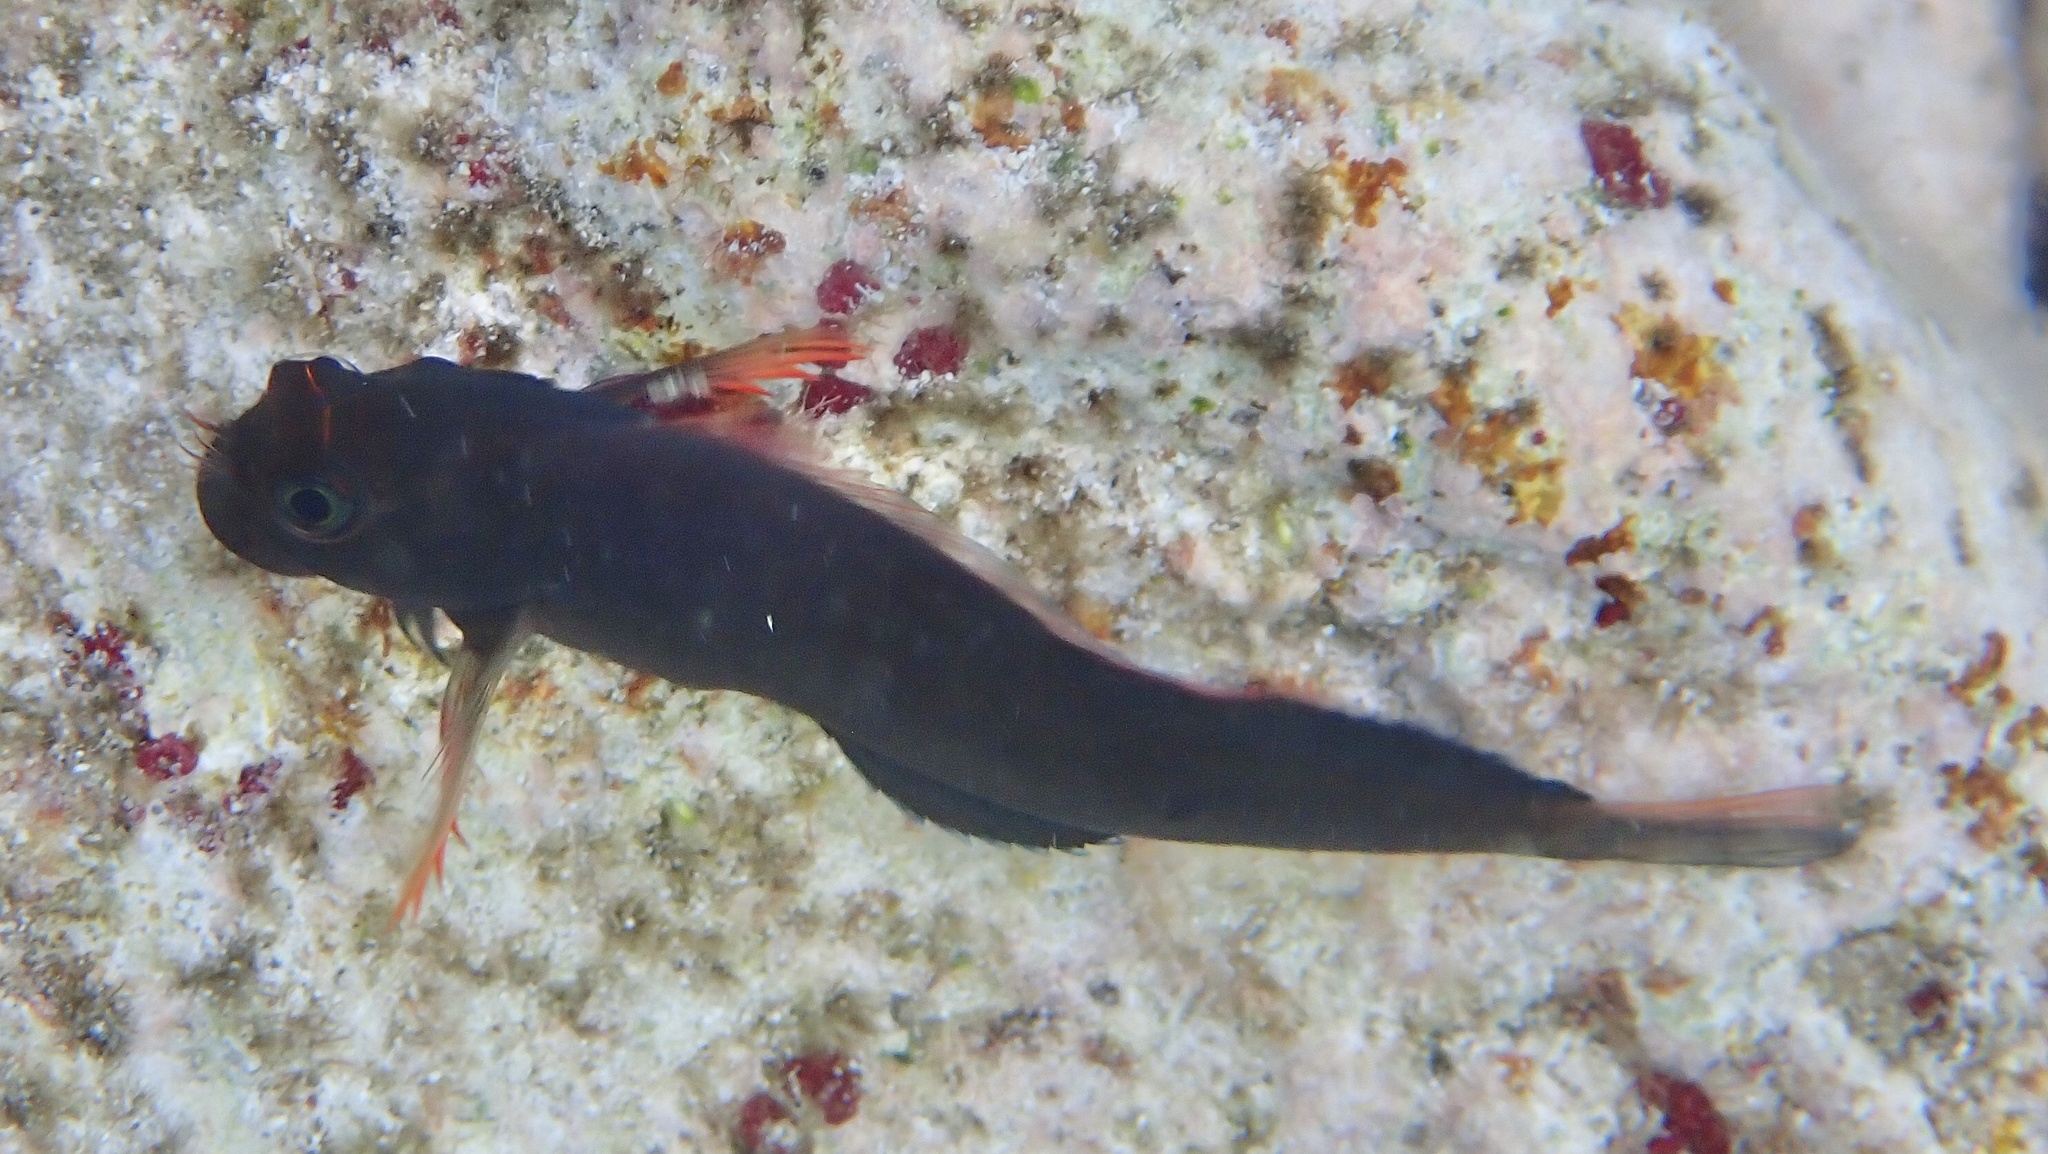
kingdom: Animalia
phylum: Chordata
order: Perciformes
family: Blenniidae
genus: Ophioblennius
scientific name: Ophioblennius macclurei
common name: Redlip blenny
